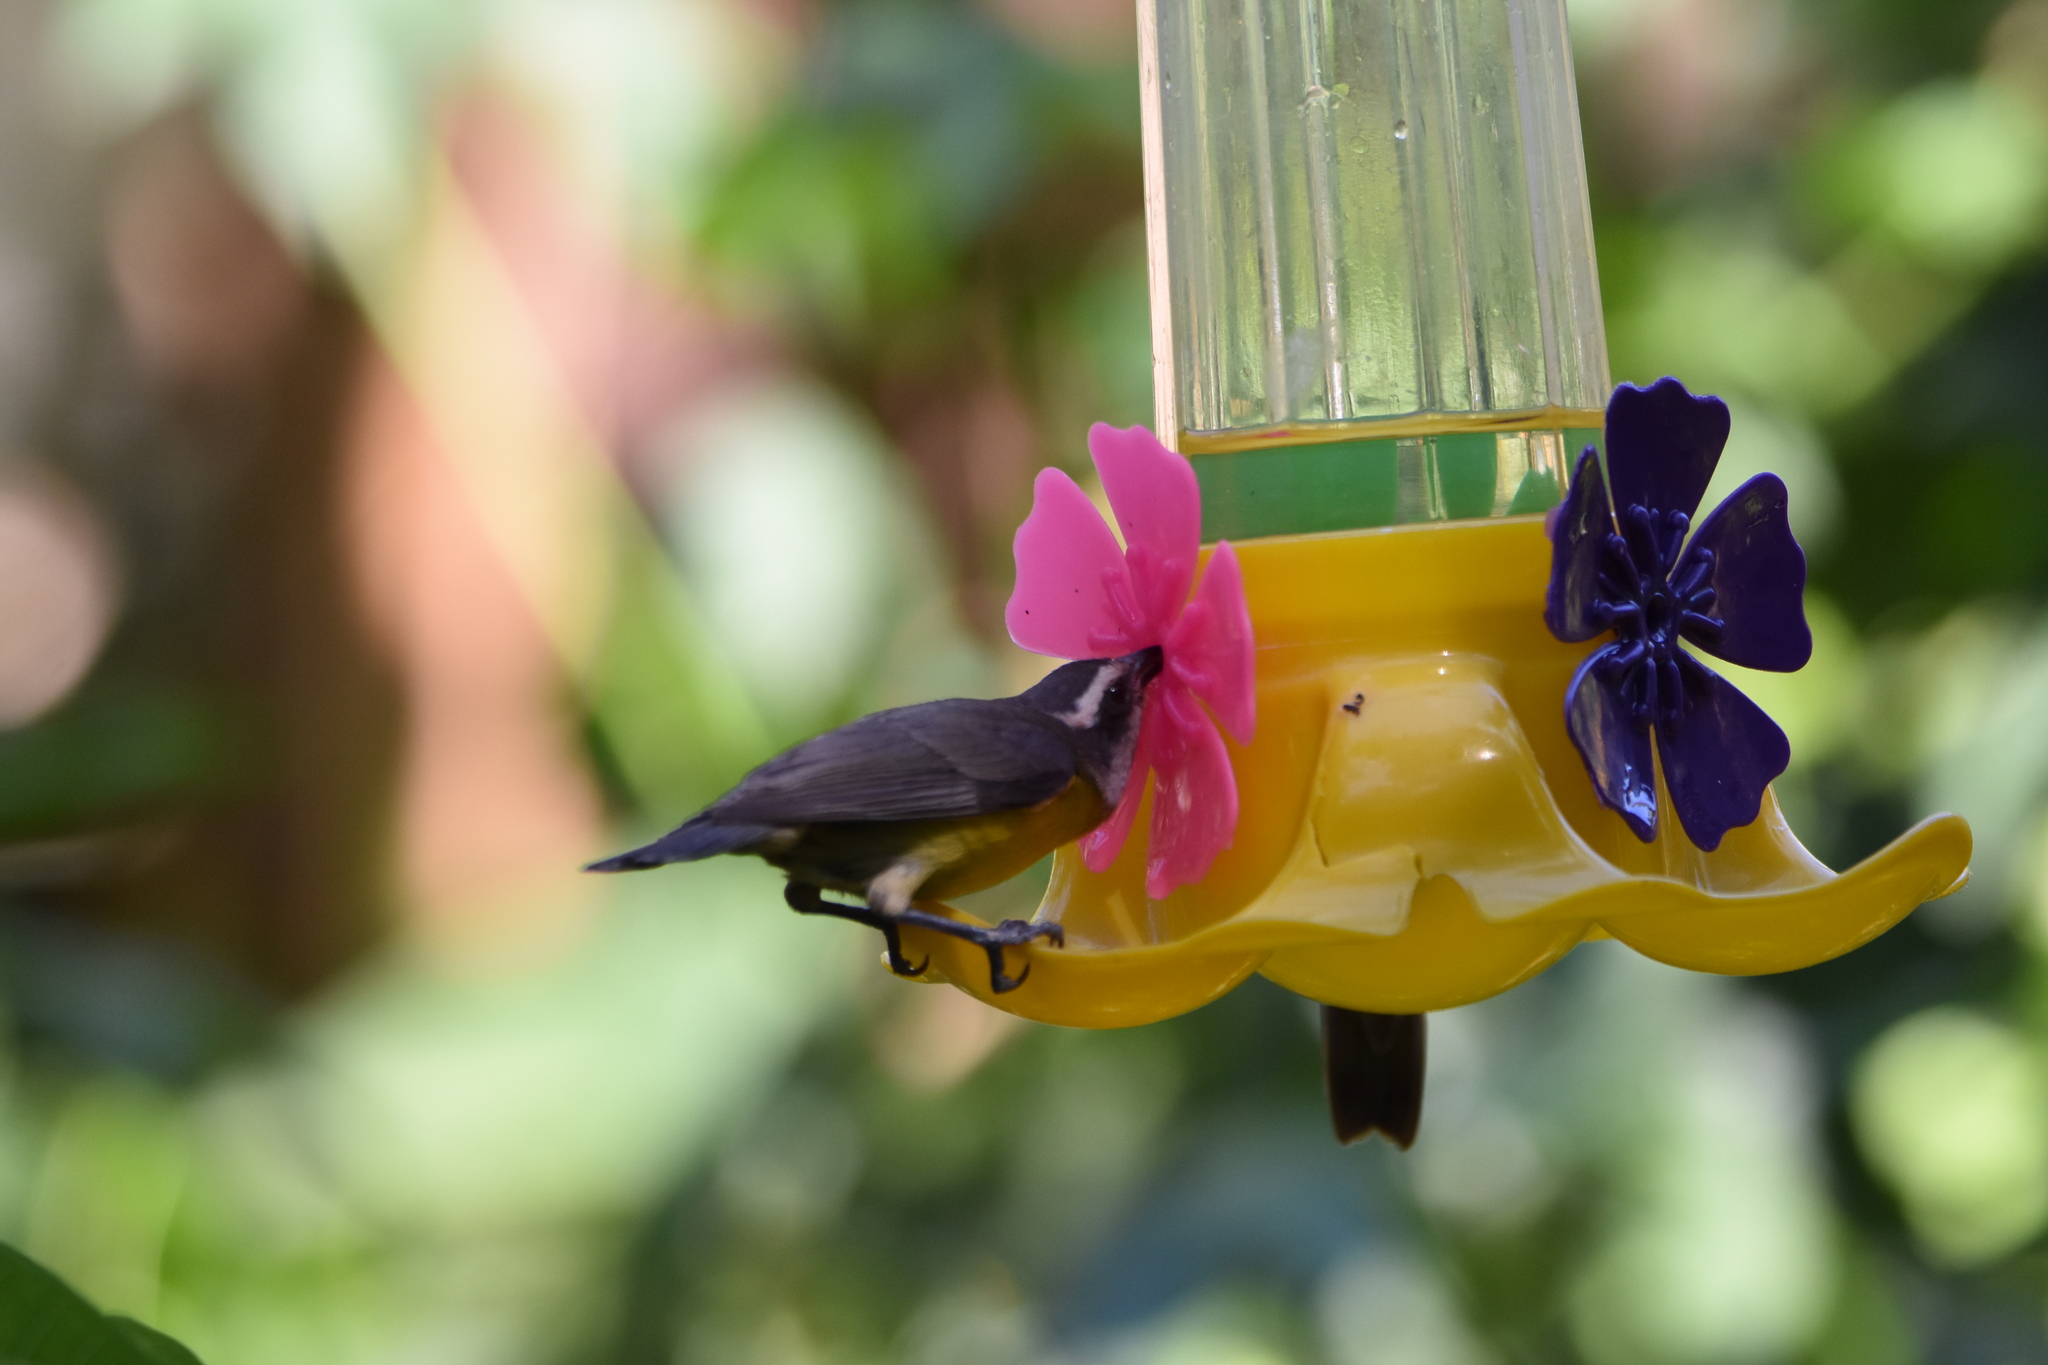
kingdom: Animalia
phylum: Chordata
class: Aves
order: Passeriformes
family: Thraupidae
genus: Coereba
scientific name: Coereba flaveola
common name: Bananaquit
